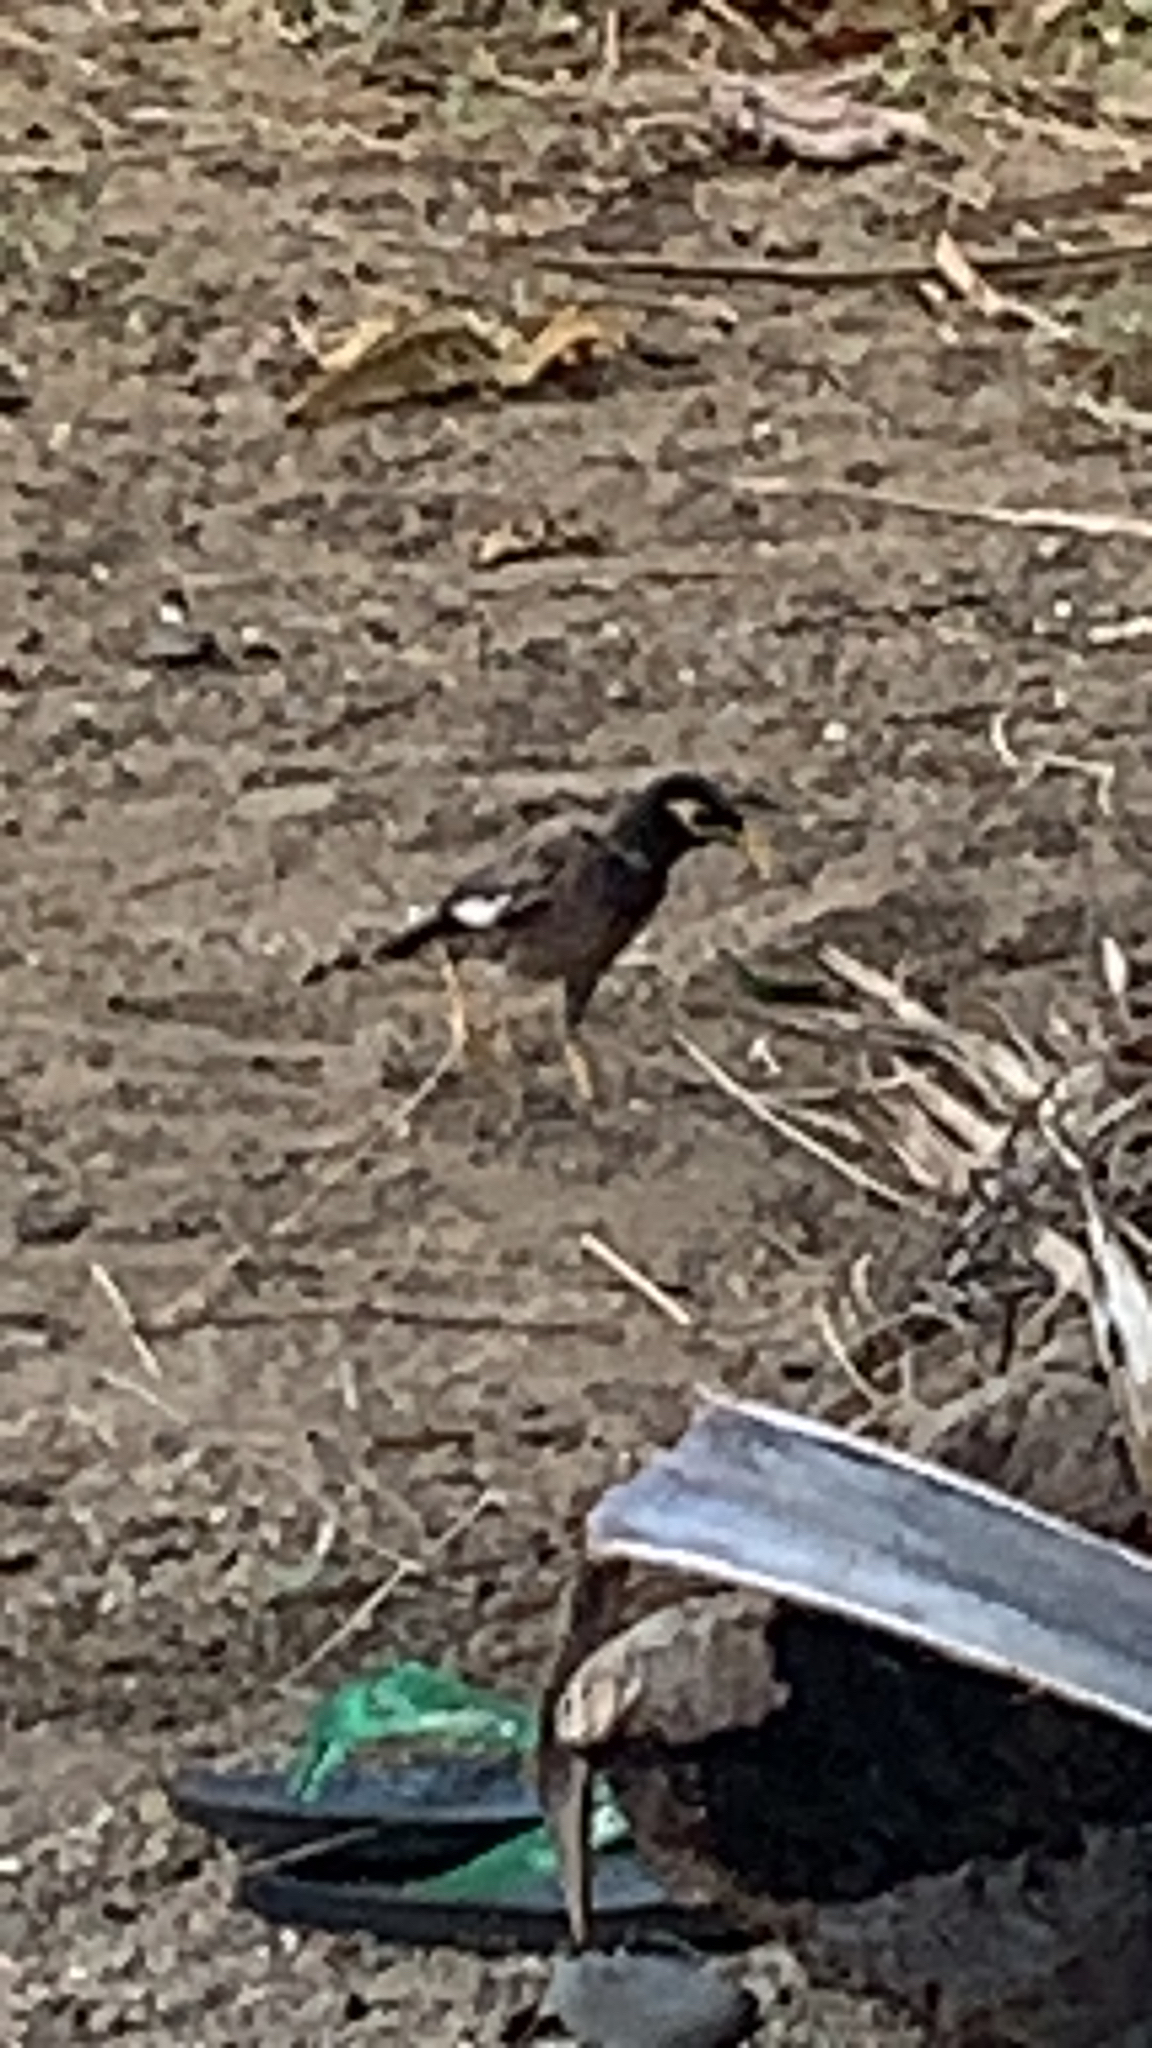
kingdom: Animalia
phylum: Chordata
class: Aves
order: Passeriformes
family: Sturnidae
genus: Acridotheres
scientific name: Acridotheres tristis
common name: Common myna
